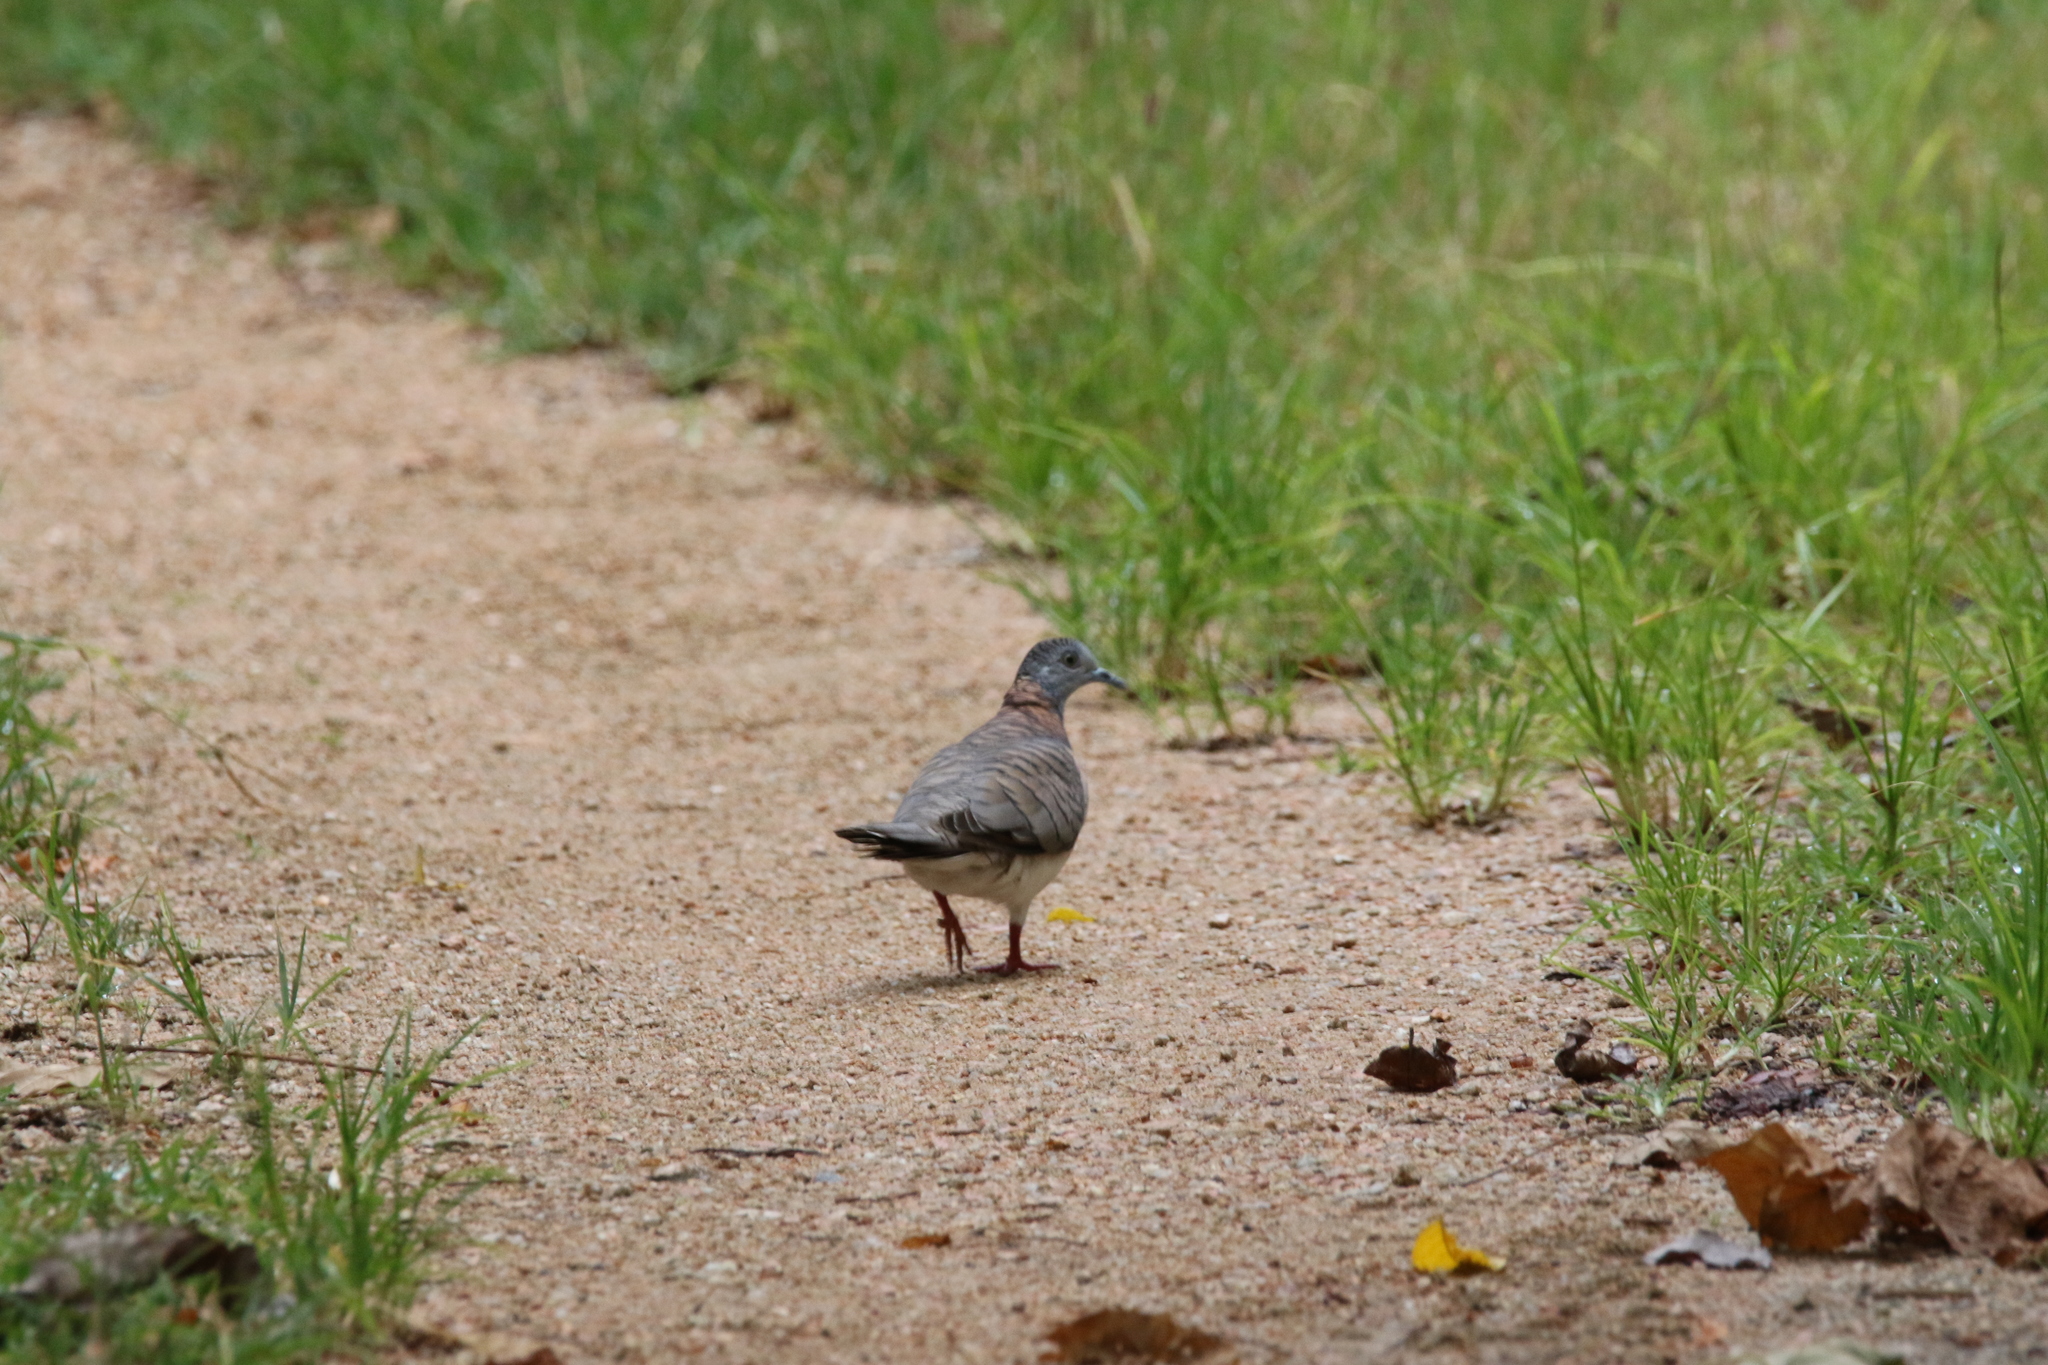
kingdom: Animalia
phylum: Chordata
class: Aves
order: Columbiformes
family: Columbidae
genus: Geopelia
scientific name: Geopelia humeralis
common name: Bar-shouldered dove
